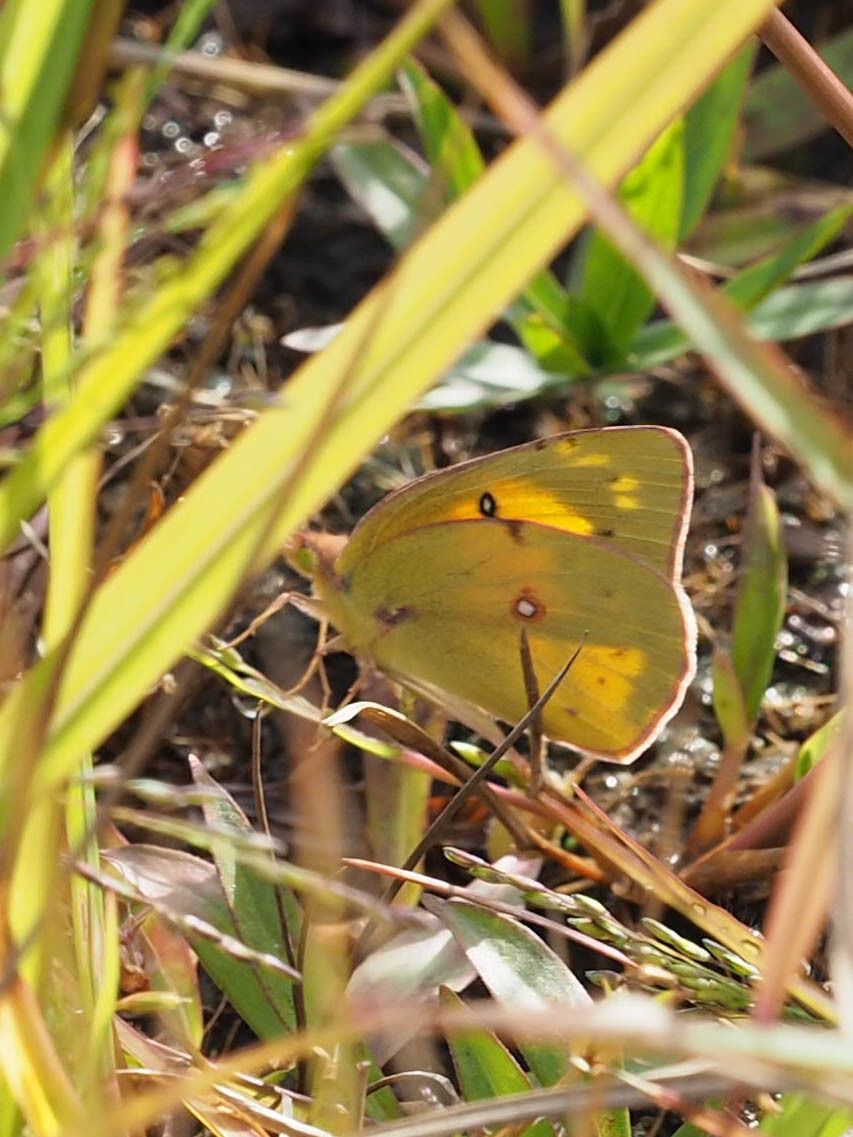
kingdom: Animalia
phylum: Arthropoda
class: Insecta
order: Lepidoptera
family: Pieridae
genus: Colias
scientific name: Colias eurytheme
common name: Alfalfa butterfly
